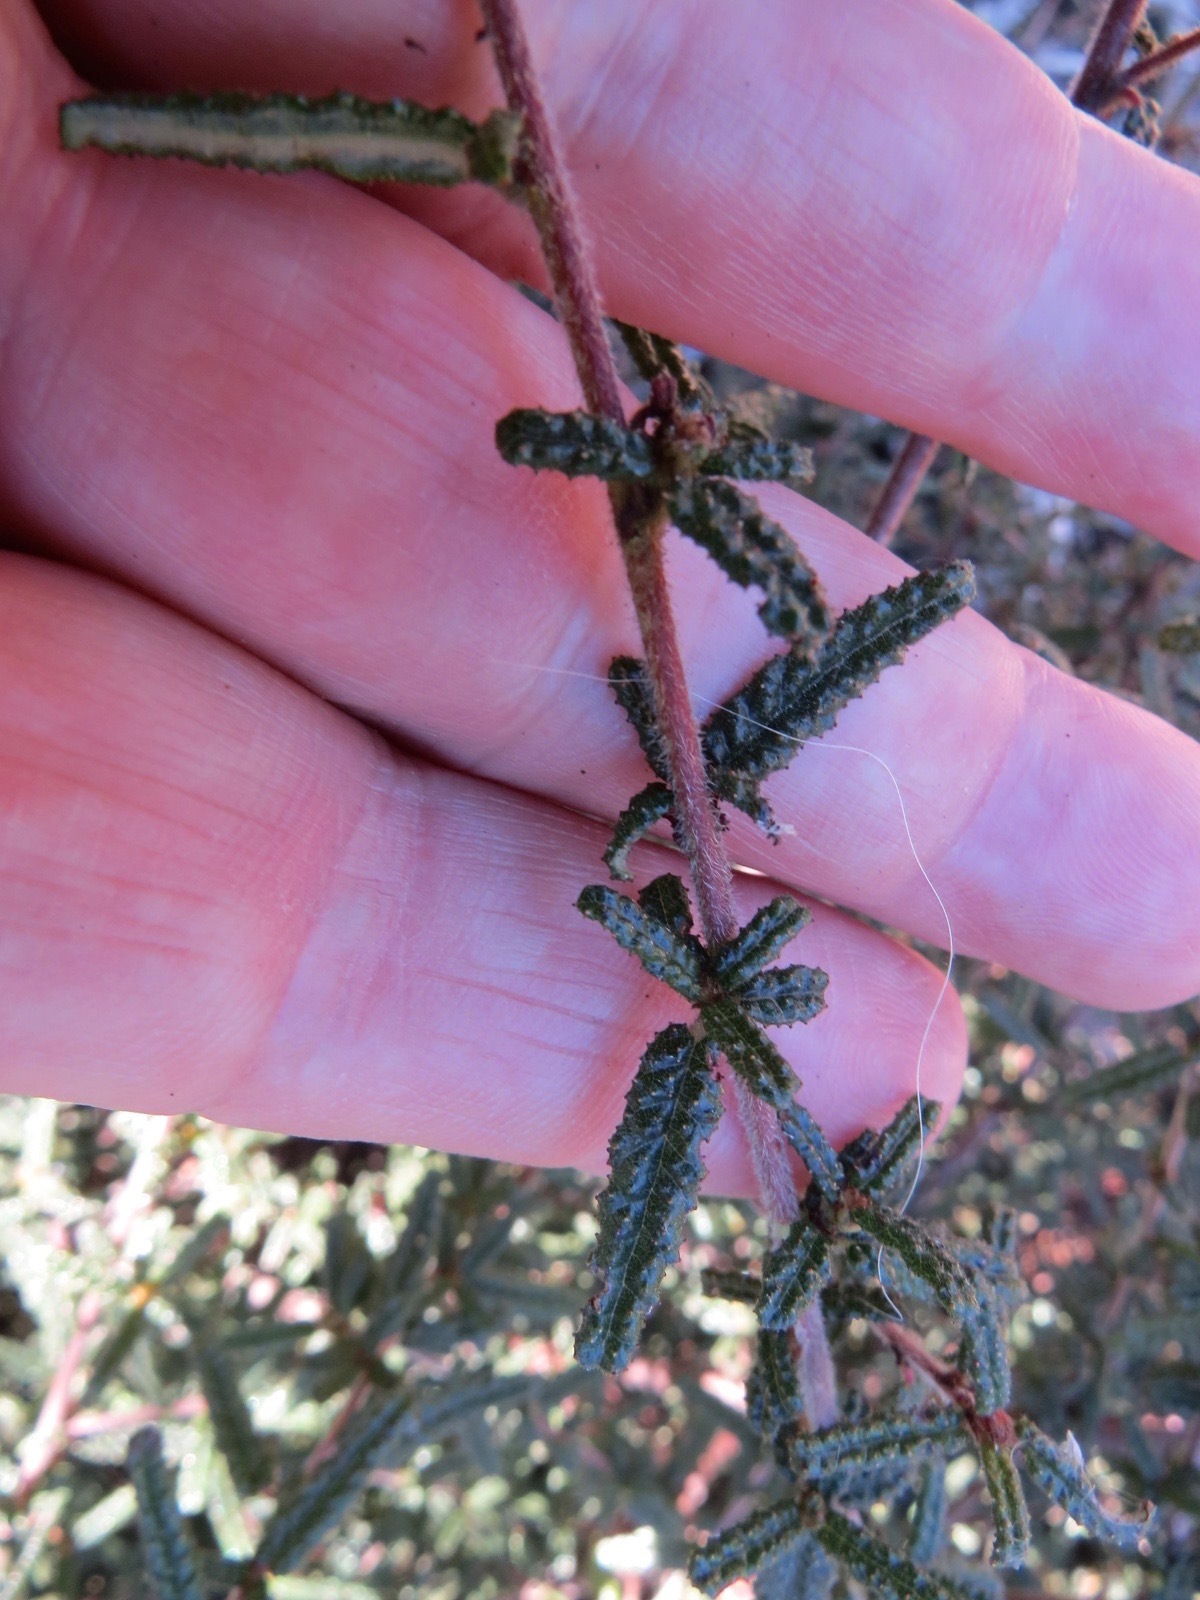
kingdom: Plantae
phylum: Tracheophyta
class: Magnoliopsida
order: Rosales
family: Rhamnaceae
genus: Ceanothus
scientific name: Ceanothus papillosus
